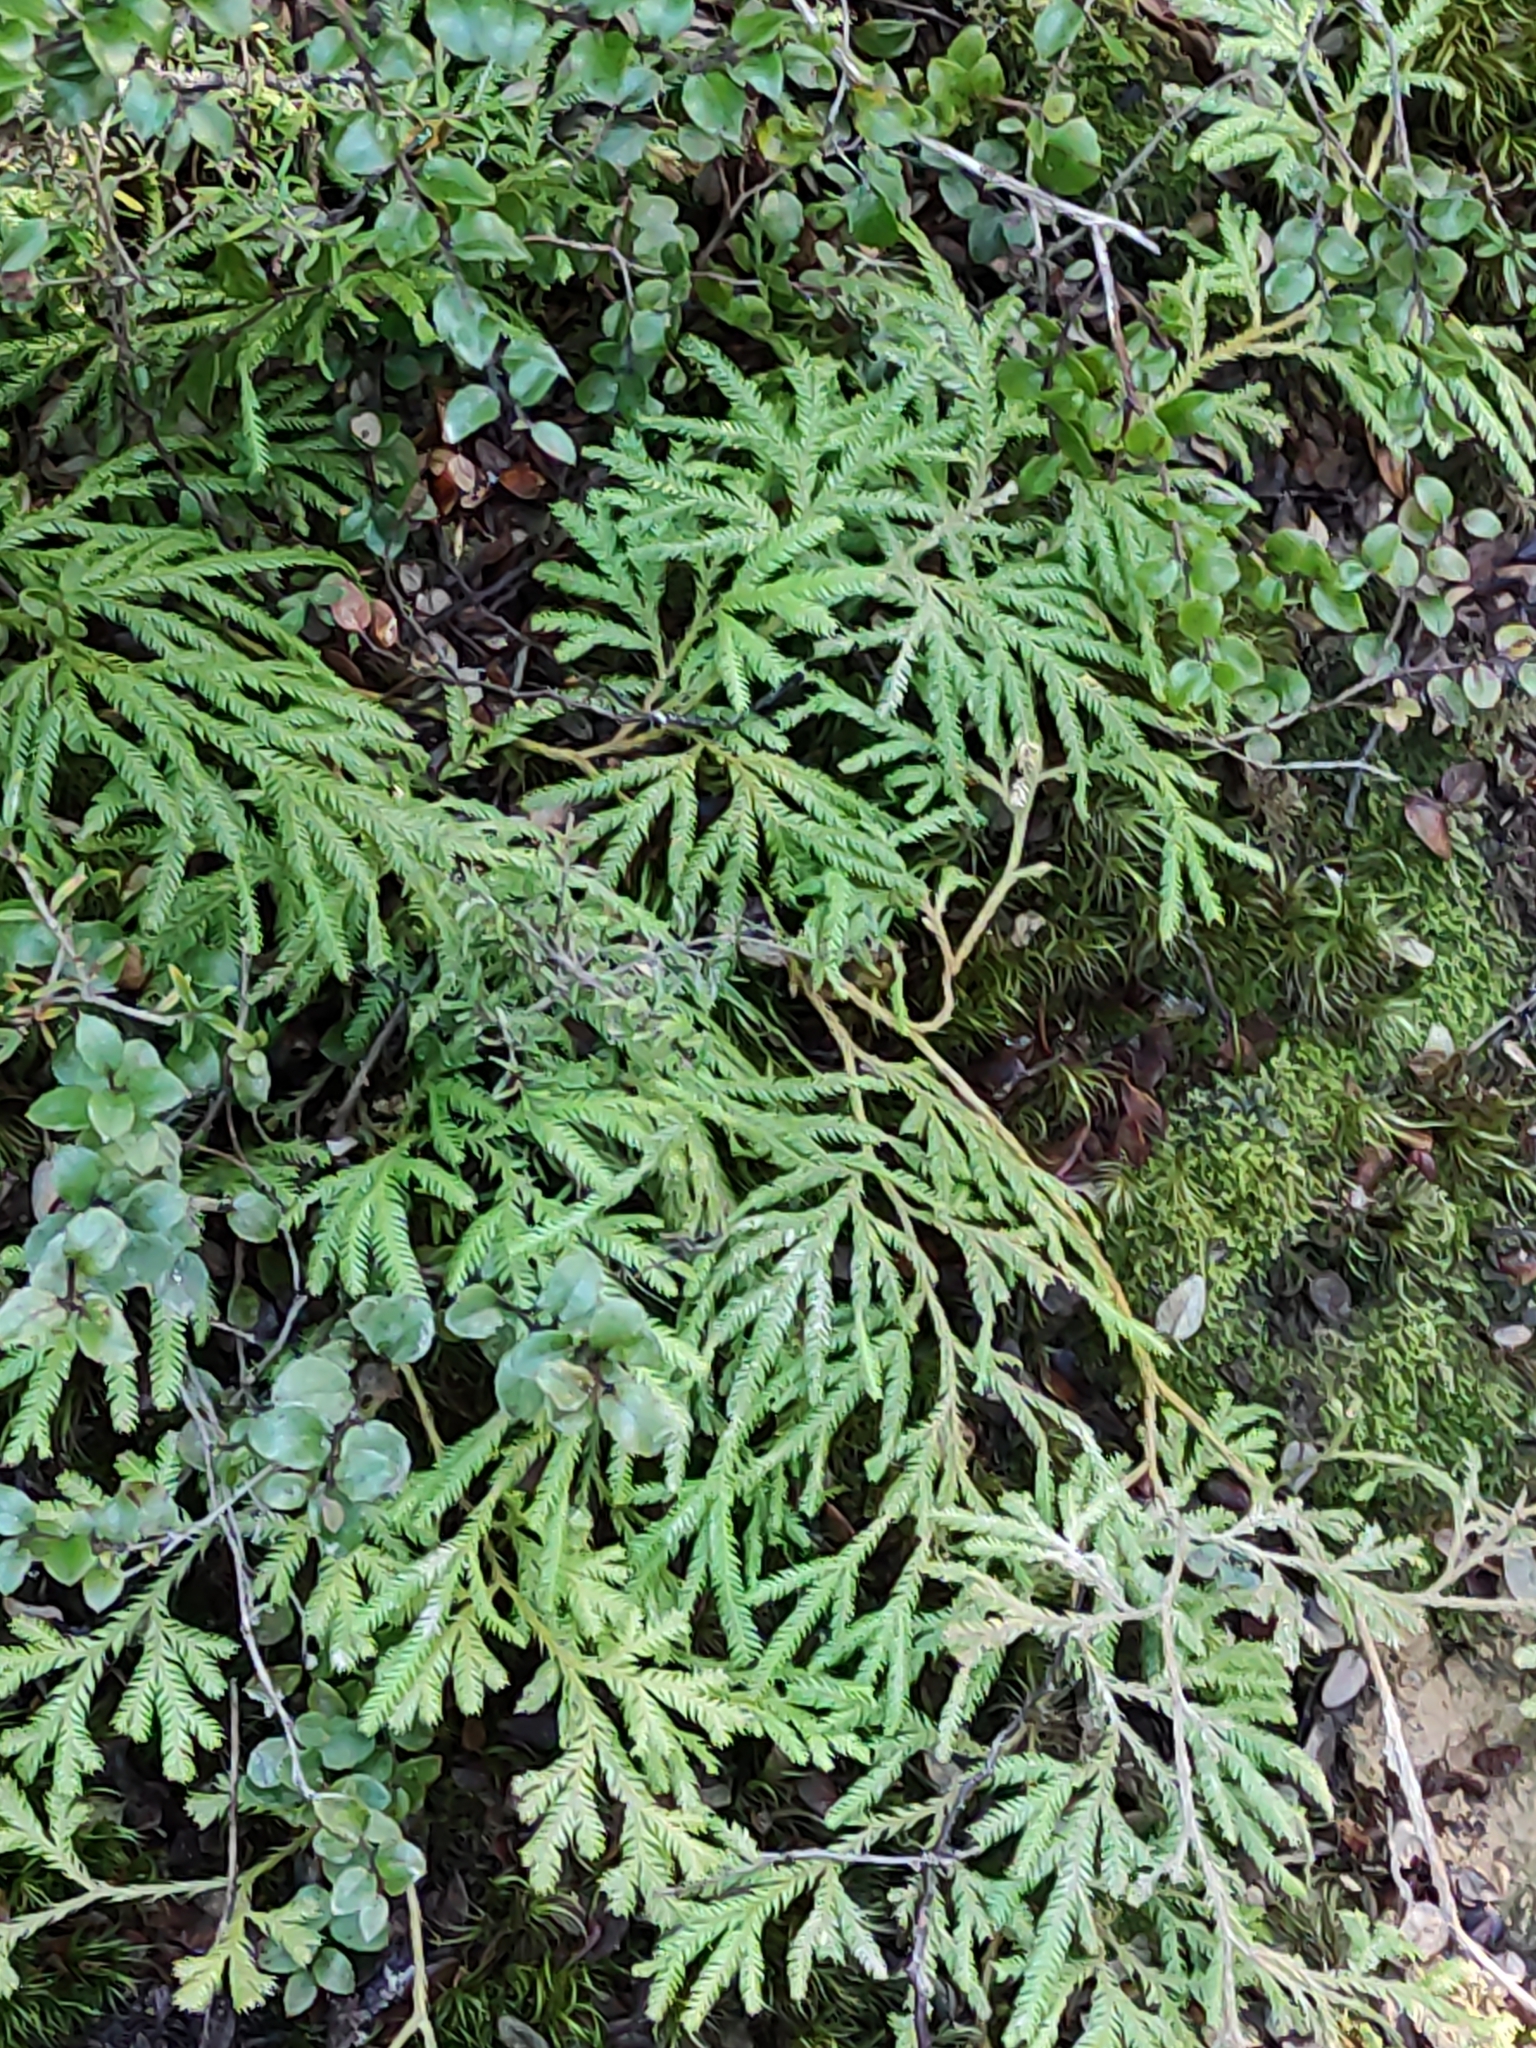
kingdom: Plantae
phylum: Tracheophyta
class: Lycopodiopsida
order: Lycopodiales
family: Lycopodiaceae
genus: Lycopodium
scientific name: Lycopodium volubile
